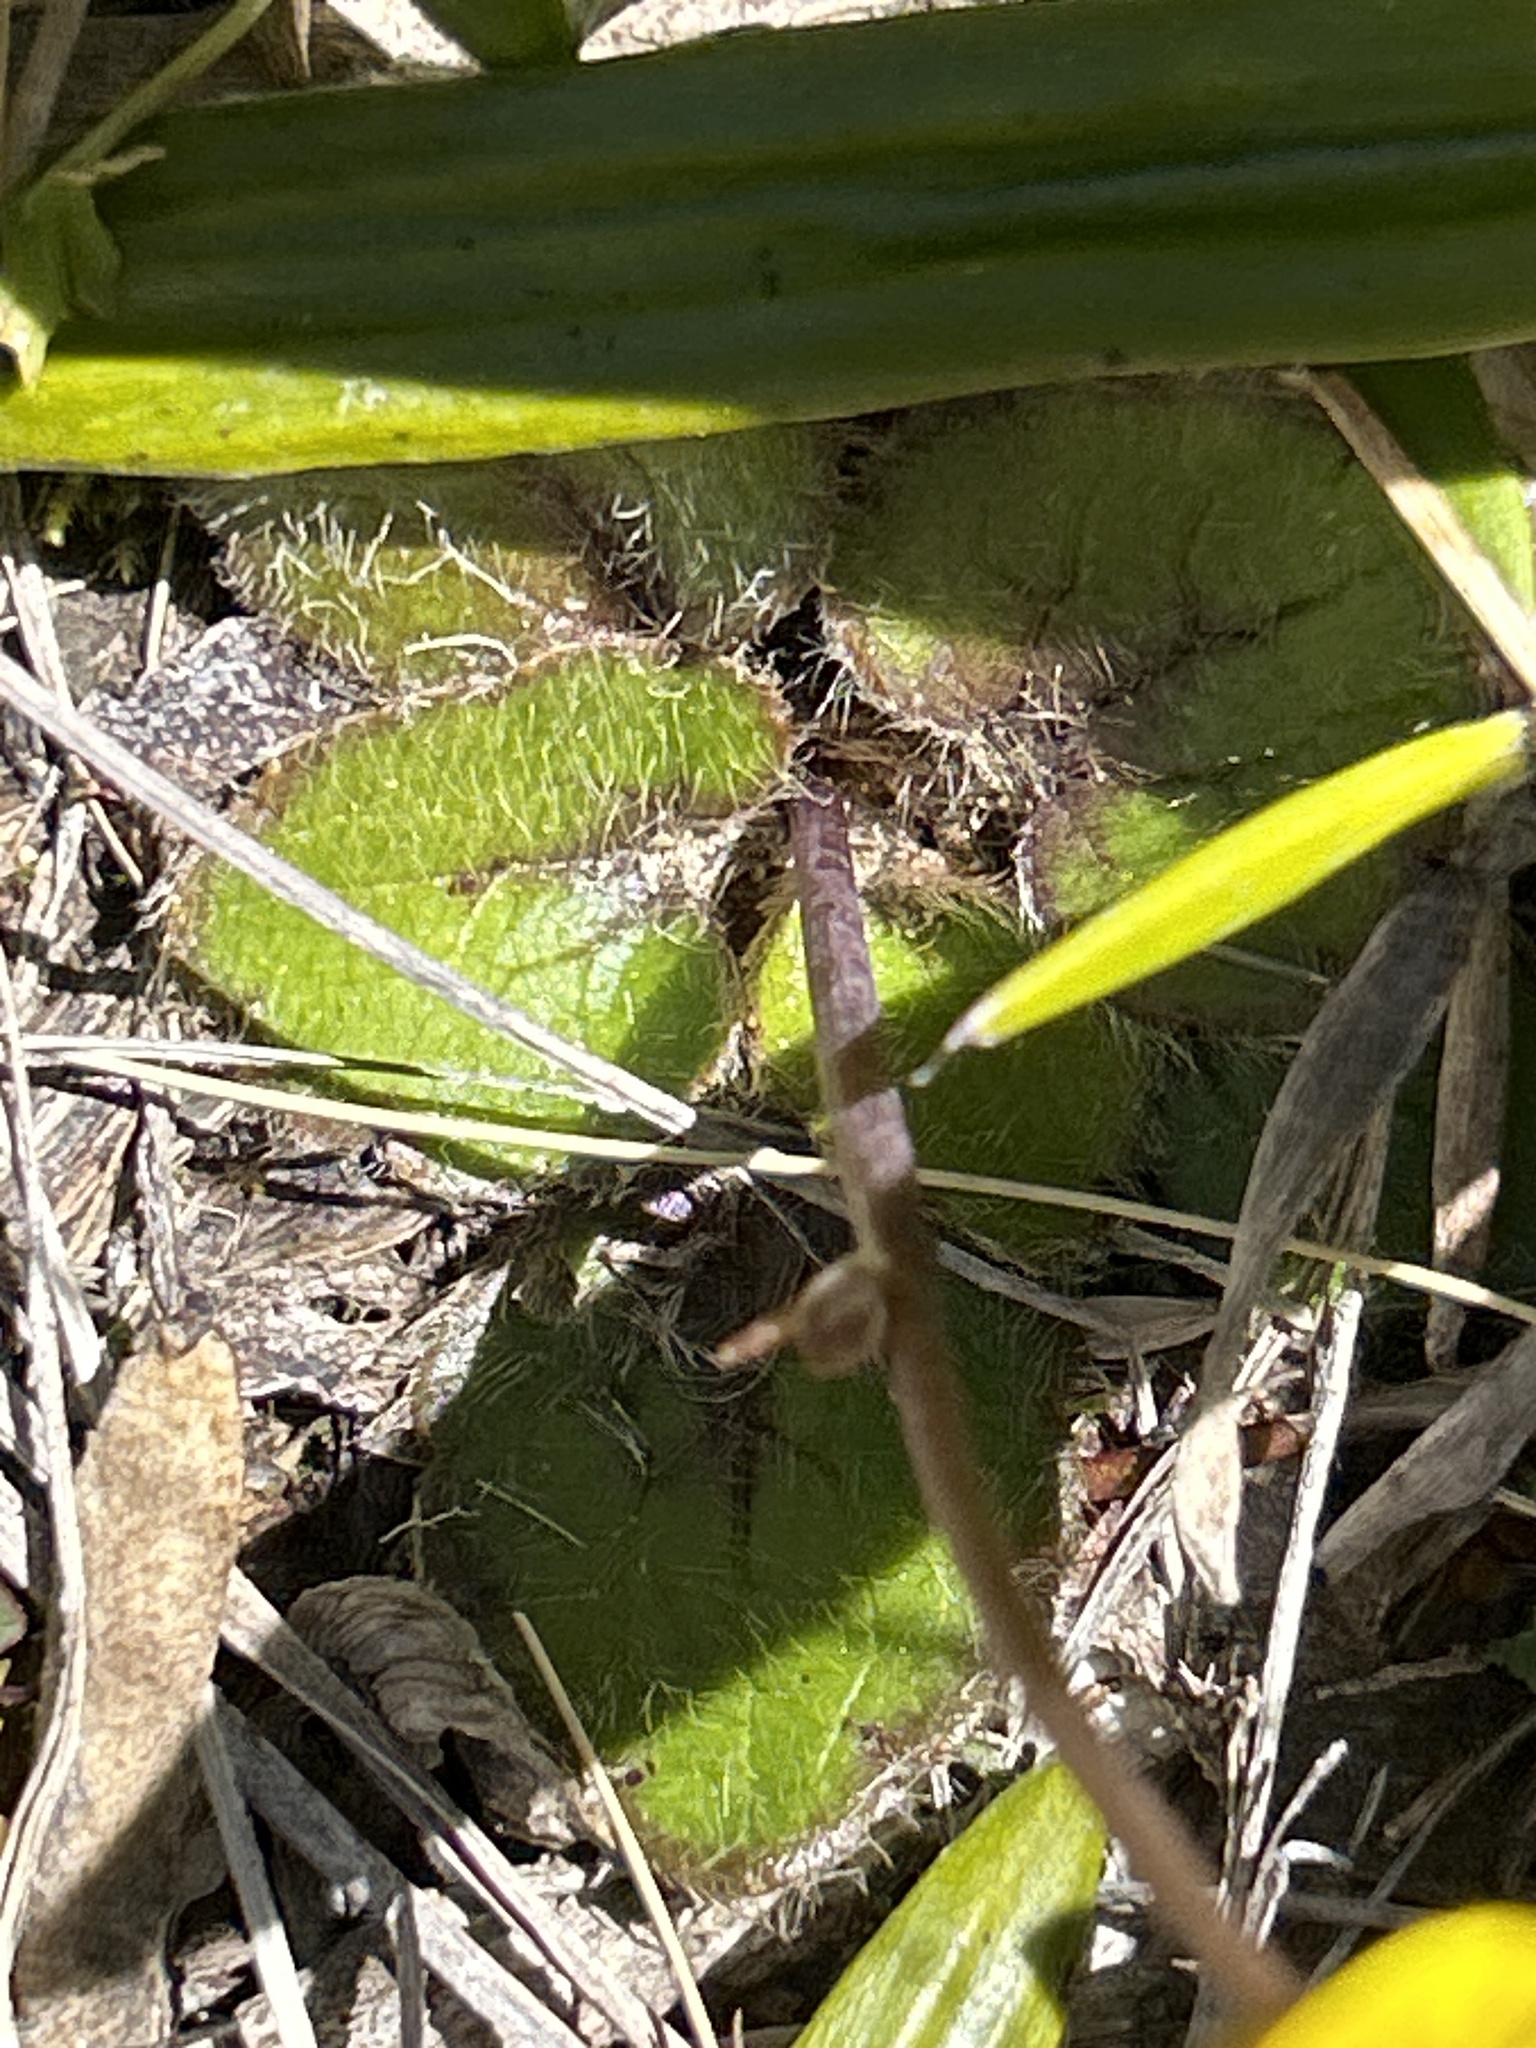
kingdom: Plantae
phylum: Tracheophyta
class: Magnoliopsida
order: Ranunculales
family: Ranunculaceae
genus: Ranunculus
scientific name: Ranunculus insignis
